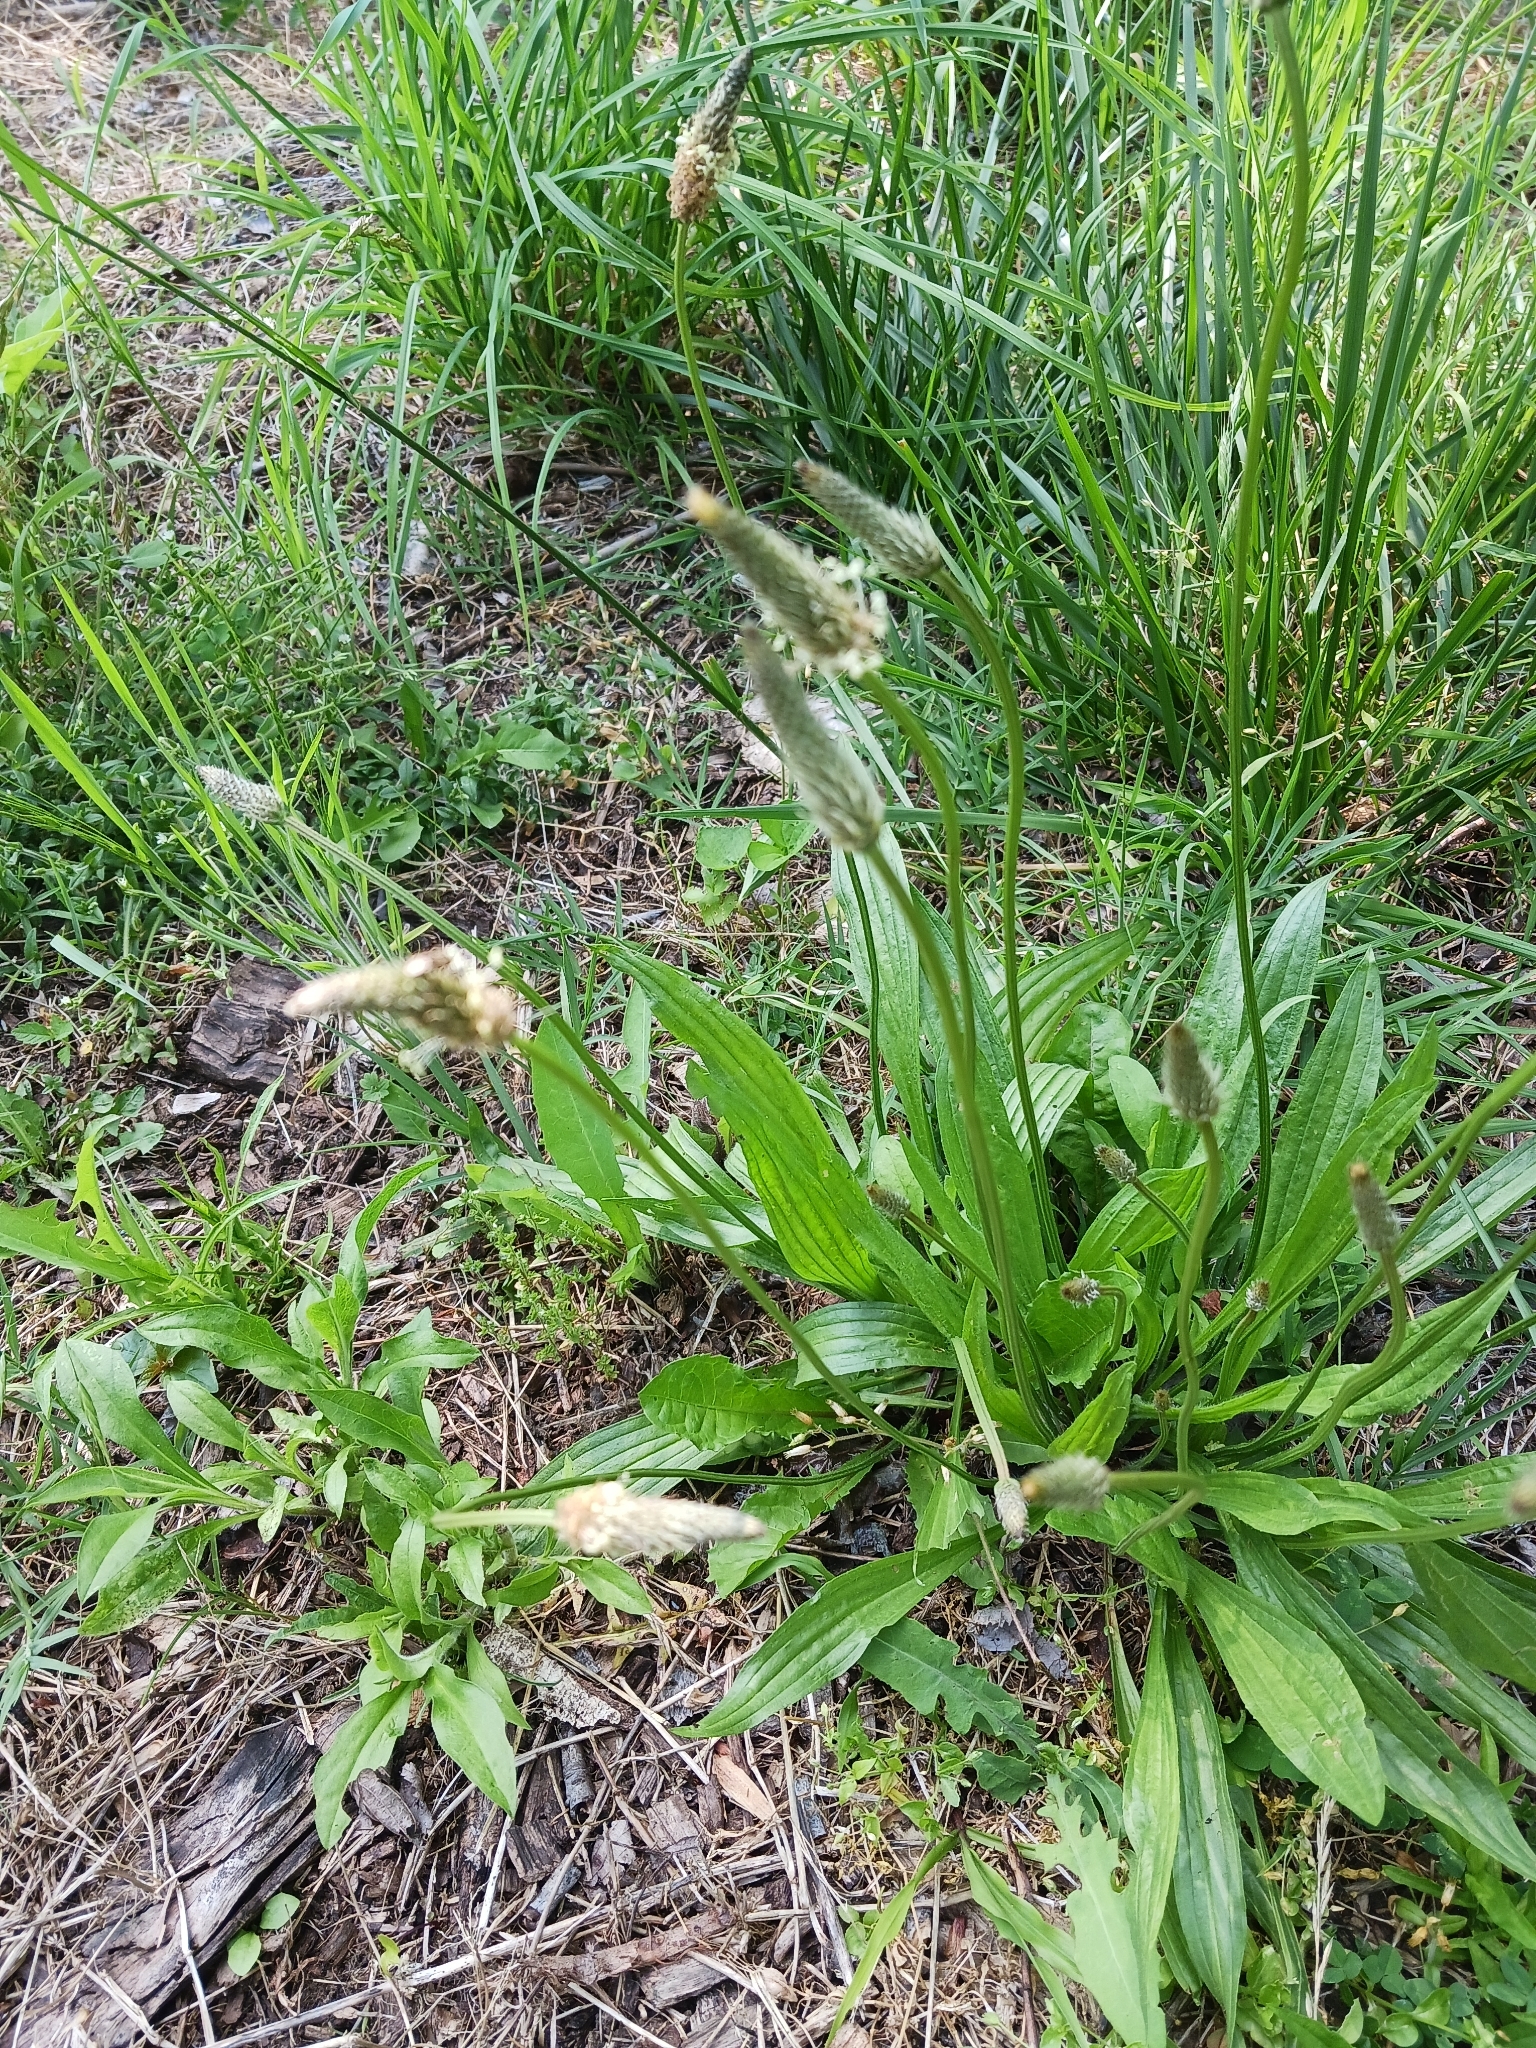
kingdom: Plantae
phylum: Tracheophyta
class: Magnoliopsida
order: Lamiales
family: Plantaginaceae
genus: Plantago
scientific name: Plantago lanceolata
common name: Ribwort plantain
